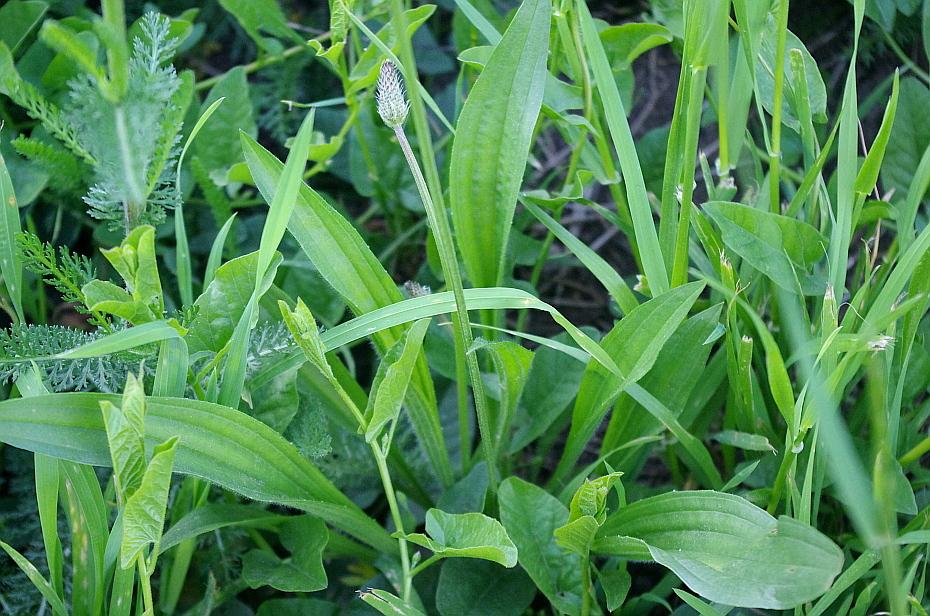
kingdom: Plantae
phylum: Tracheophyta
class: Magnoliopsida
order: Lamiales
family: Plantaginaceae
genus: Plantago
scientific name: Plantago lanceolata
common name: Ribwort plantain
